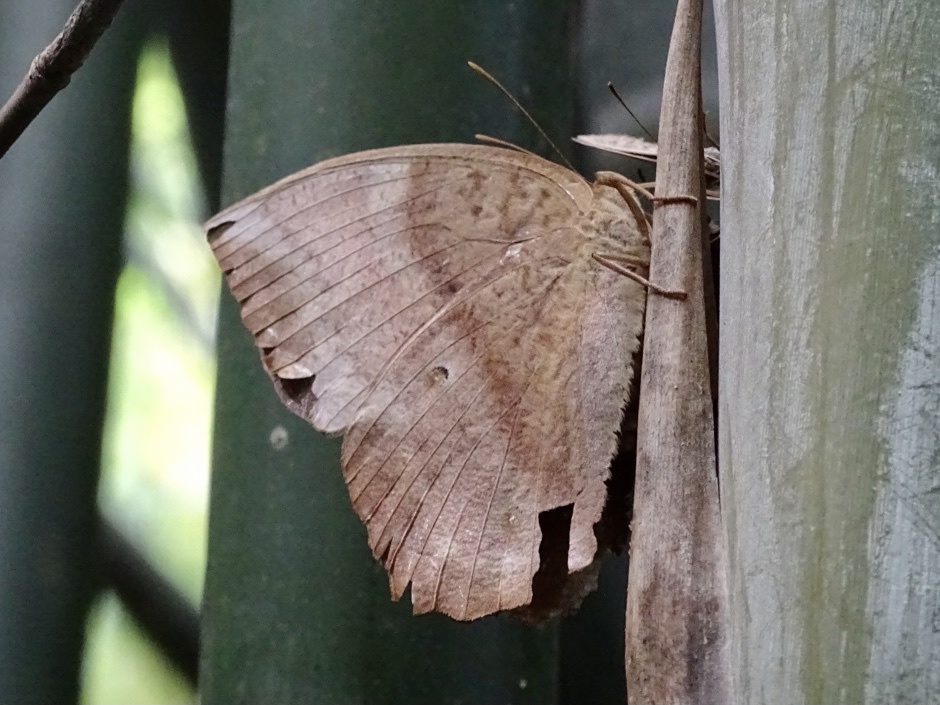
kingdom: Animalia
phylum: Arthropoda
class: Insecta
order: Lepidoptera
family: Nymphalidae
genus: Discophora
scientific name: Discophora sondaica
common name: Common duffer
